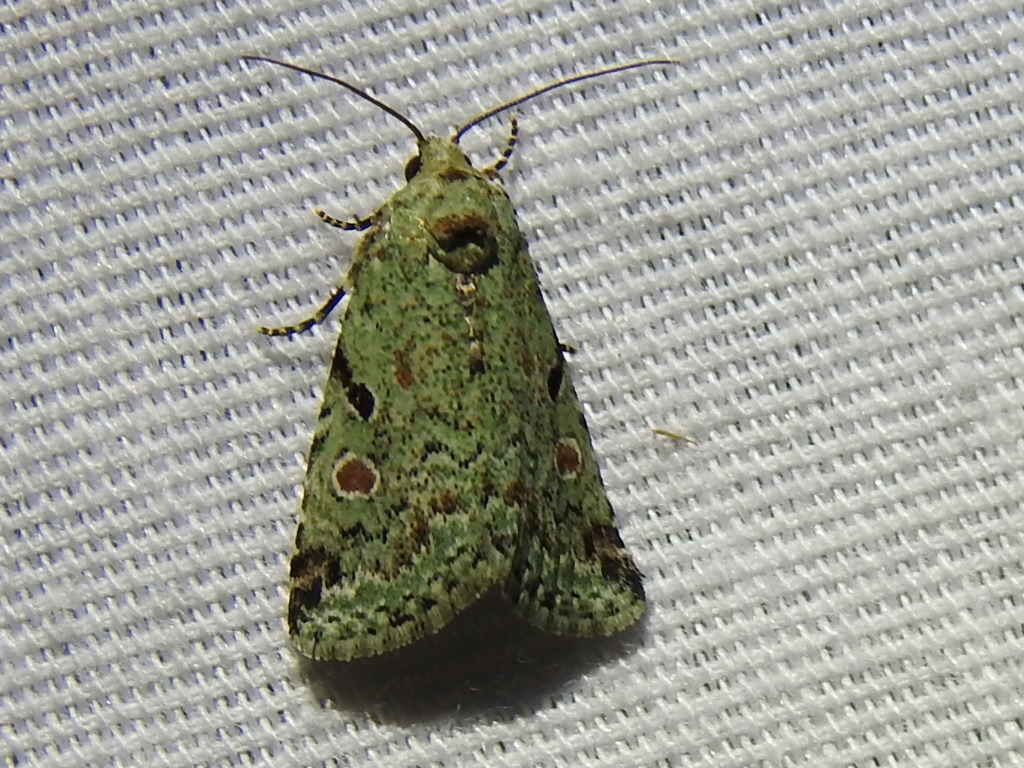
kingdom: Animalia
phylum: Arthropoda
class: Insecta
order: Lepidoptera
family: Noctuidae
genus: Maliattha
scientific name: Maliattha concinnimacula
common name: Red-spotted glyph
